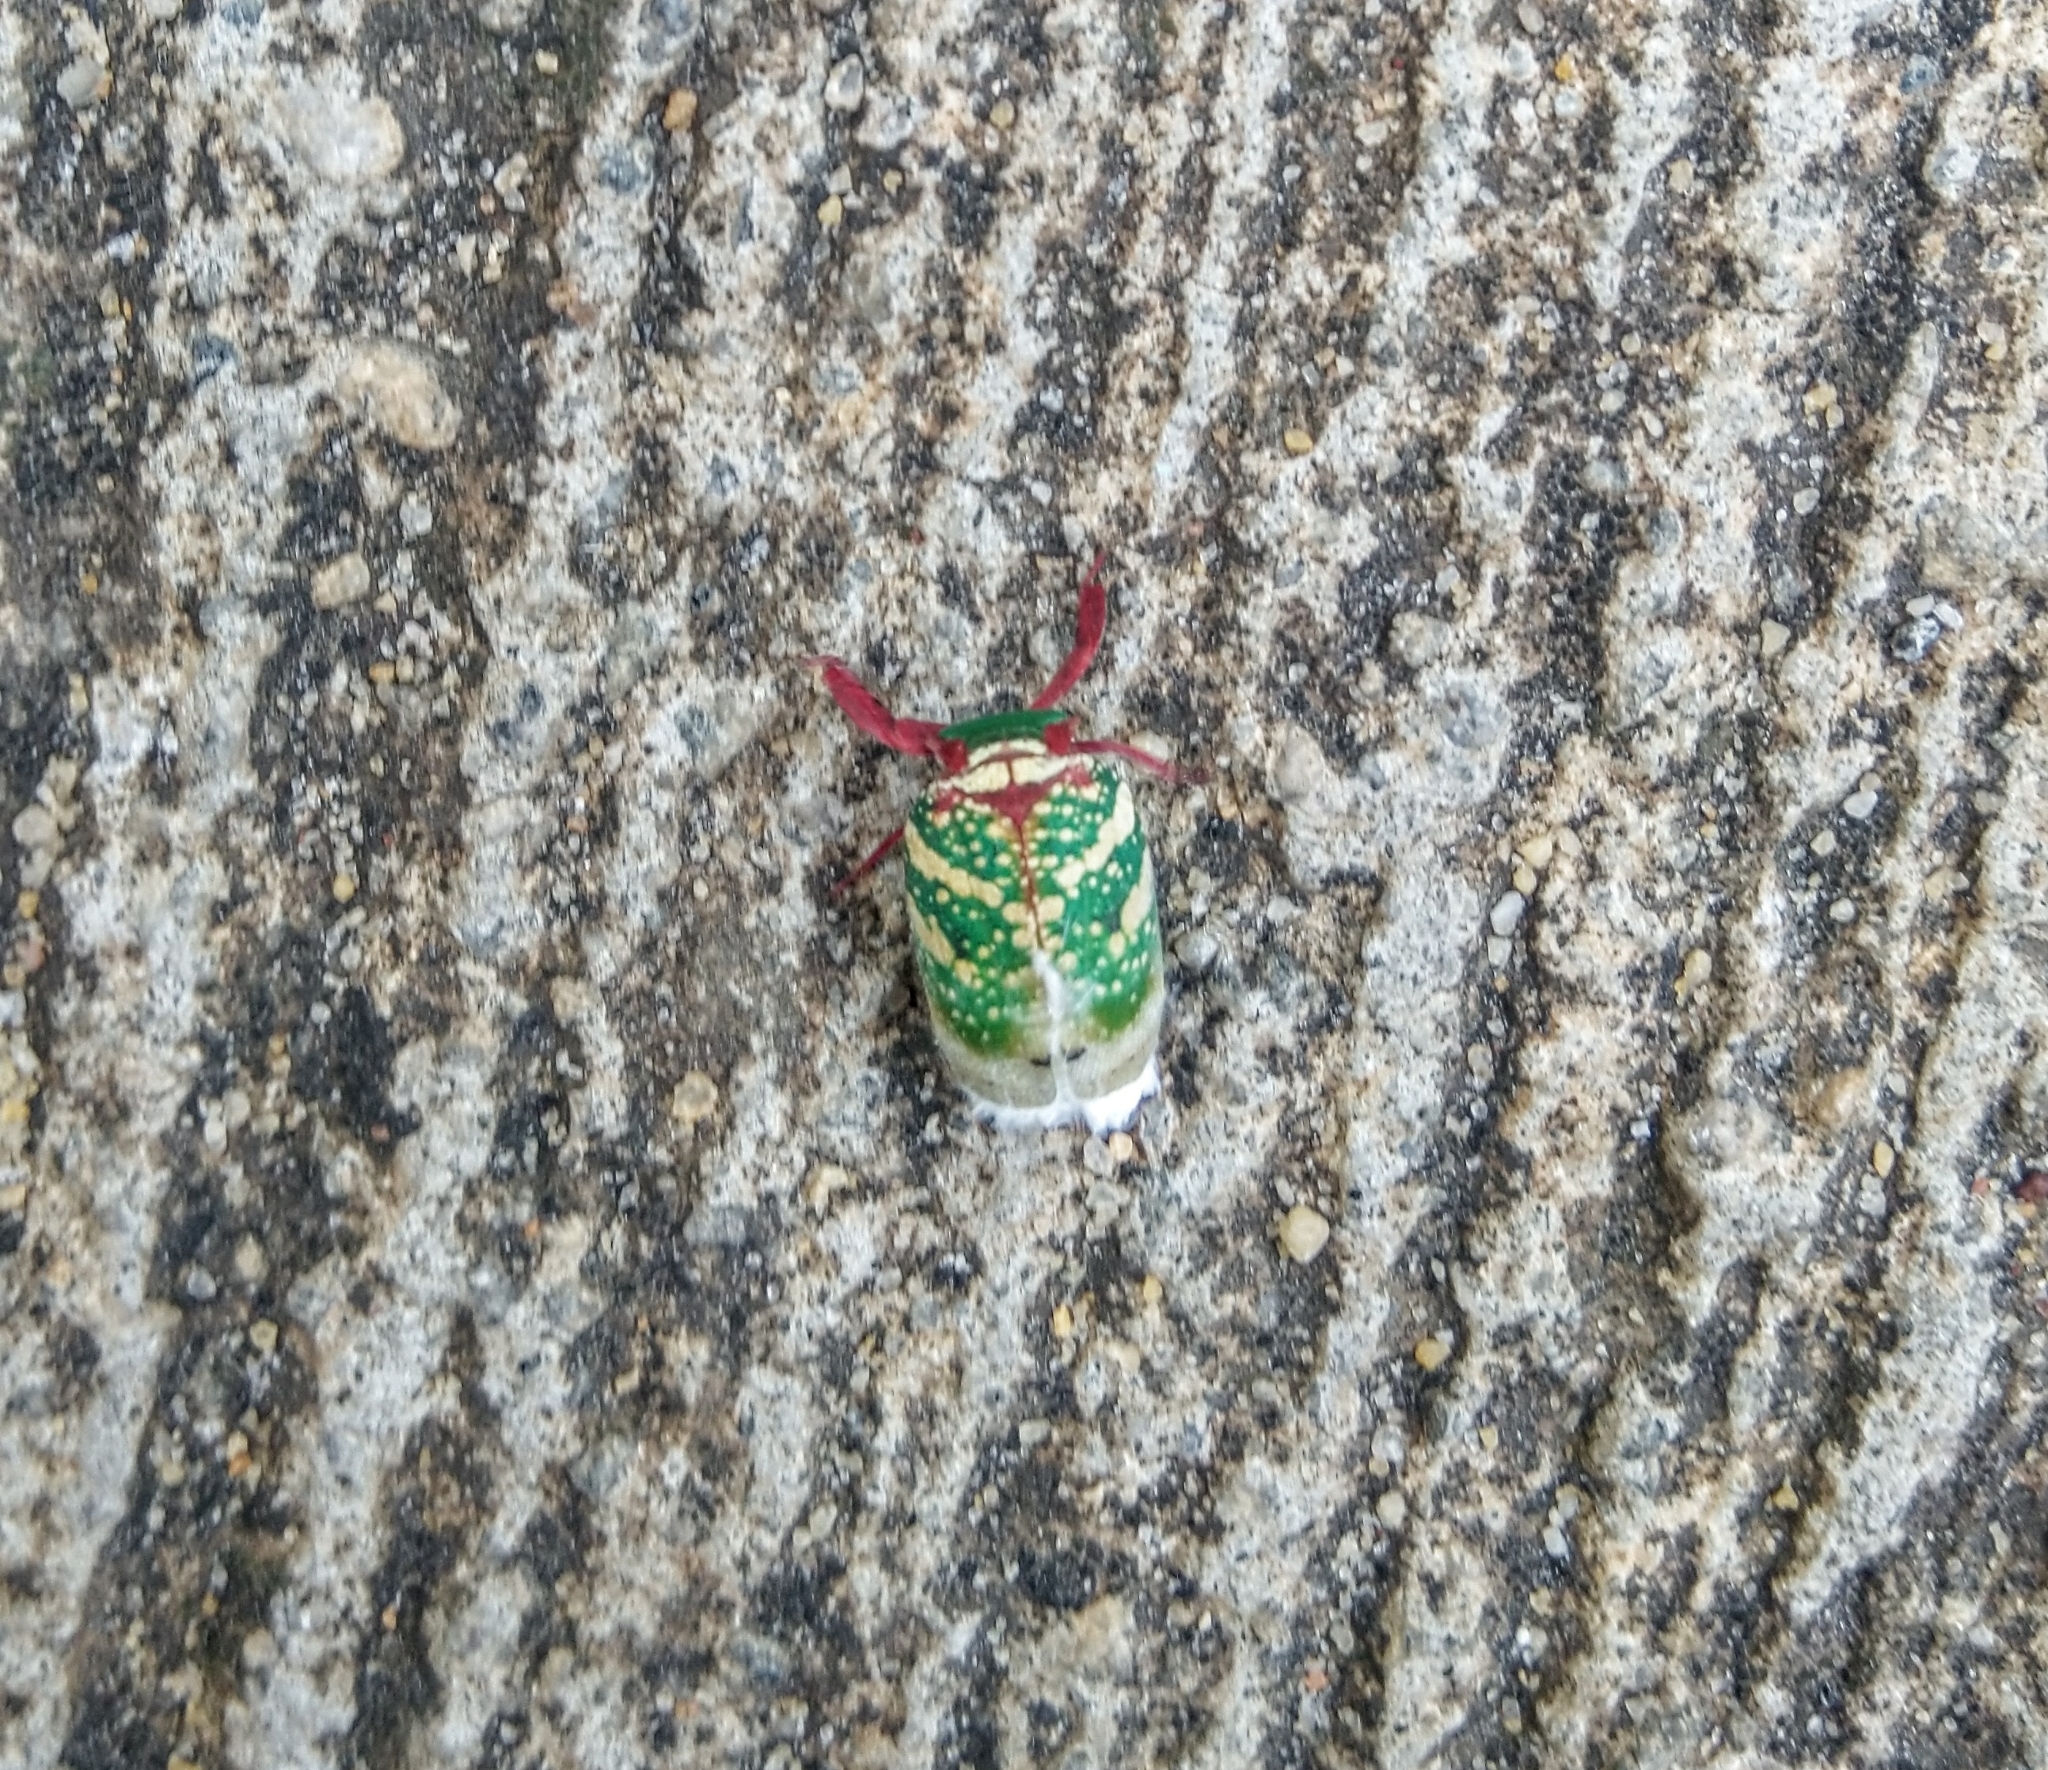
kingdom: Animalia
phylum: Arthropoda
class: Insecta
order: Hemiptera
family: Eurybrachidae
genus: Eurybrachys
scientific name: Eurybrachys tomentosa
